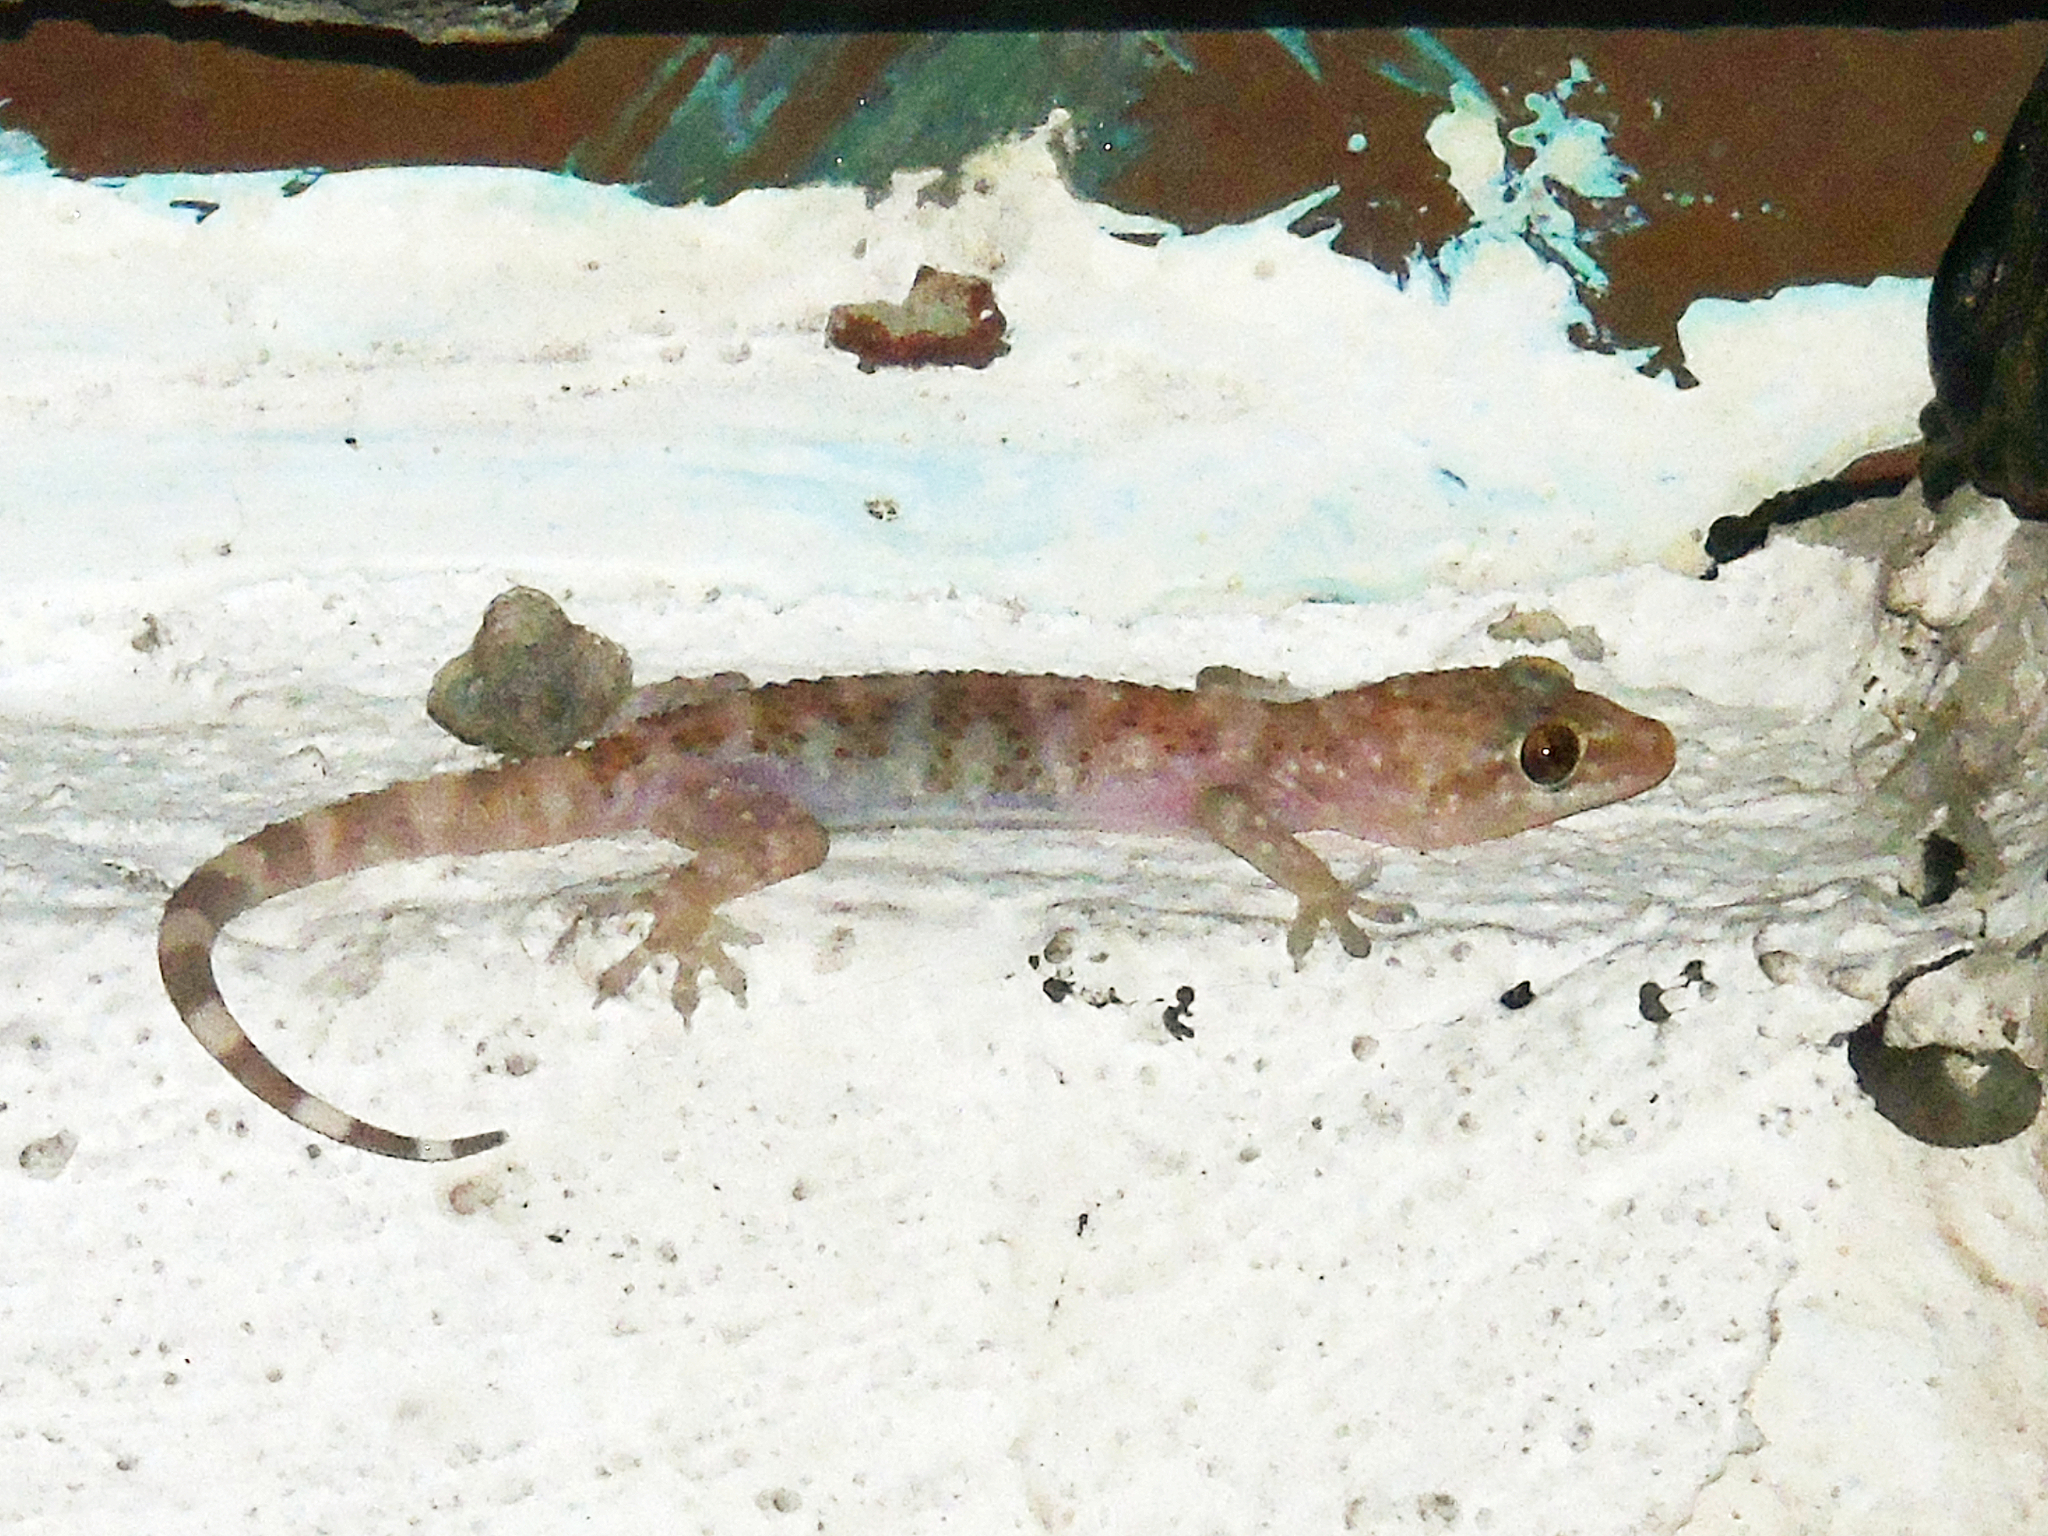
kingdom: Animalia
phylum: Chordata
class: Squamata
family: Gekkonidae
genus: Hemidactylus
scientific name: Hemidactylus turcicus
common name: Turkish gecko
